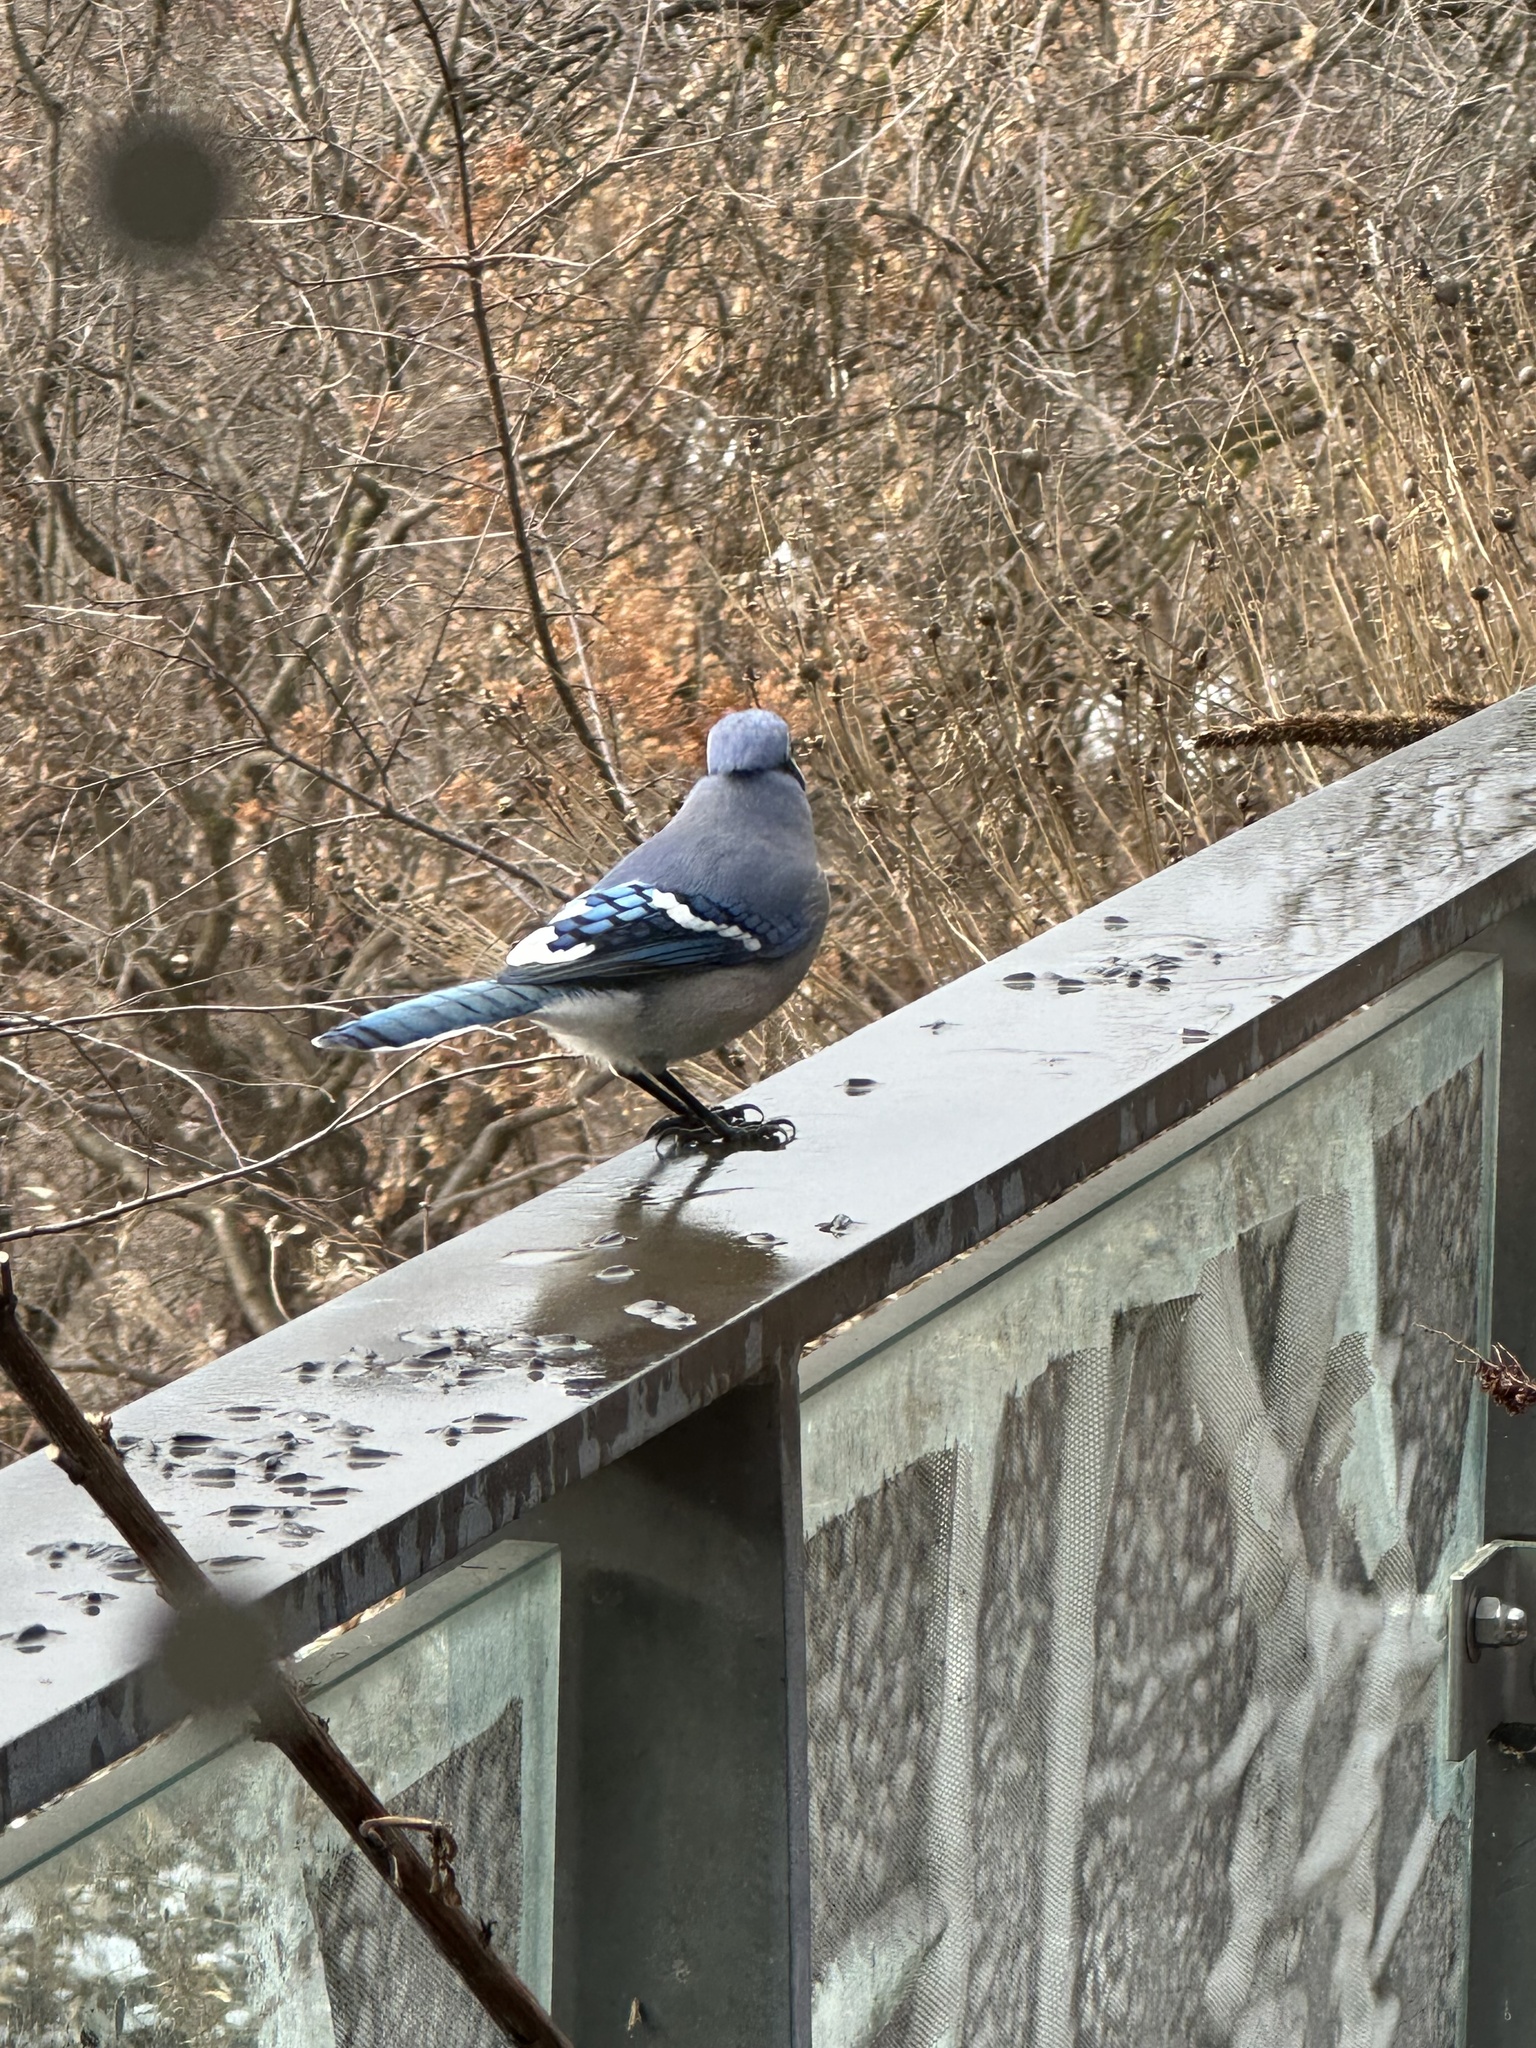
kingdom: Animalia
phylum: Chordata
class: Aves
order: Passeriformes
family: Corvidae
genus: Cyanocitta
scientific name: Cyanocitta cristata
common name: Blue jay
